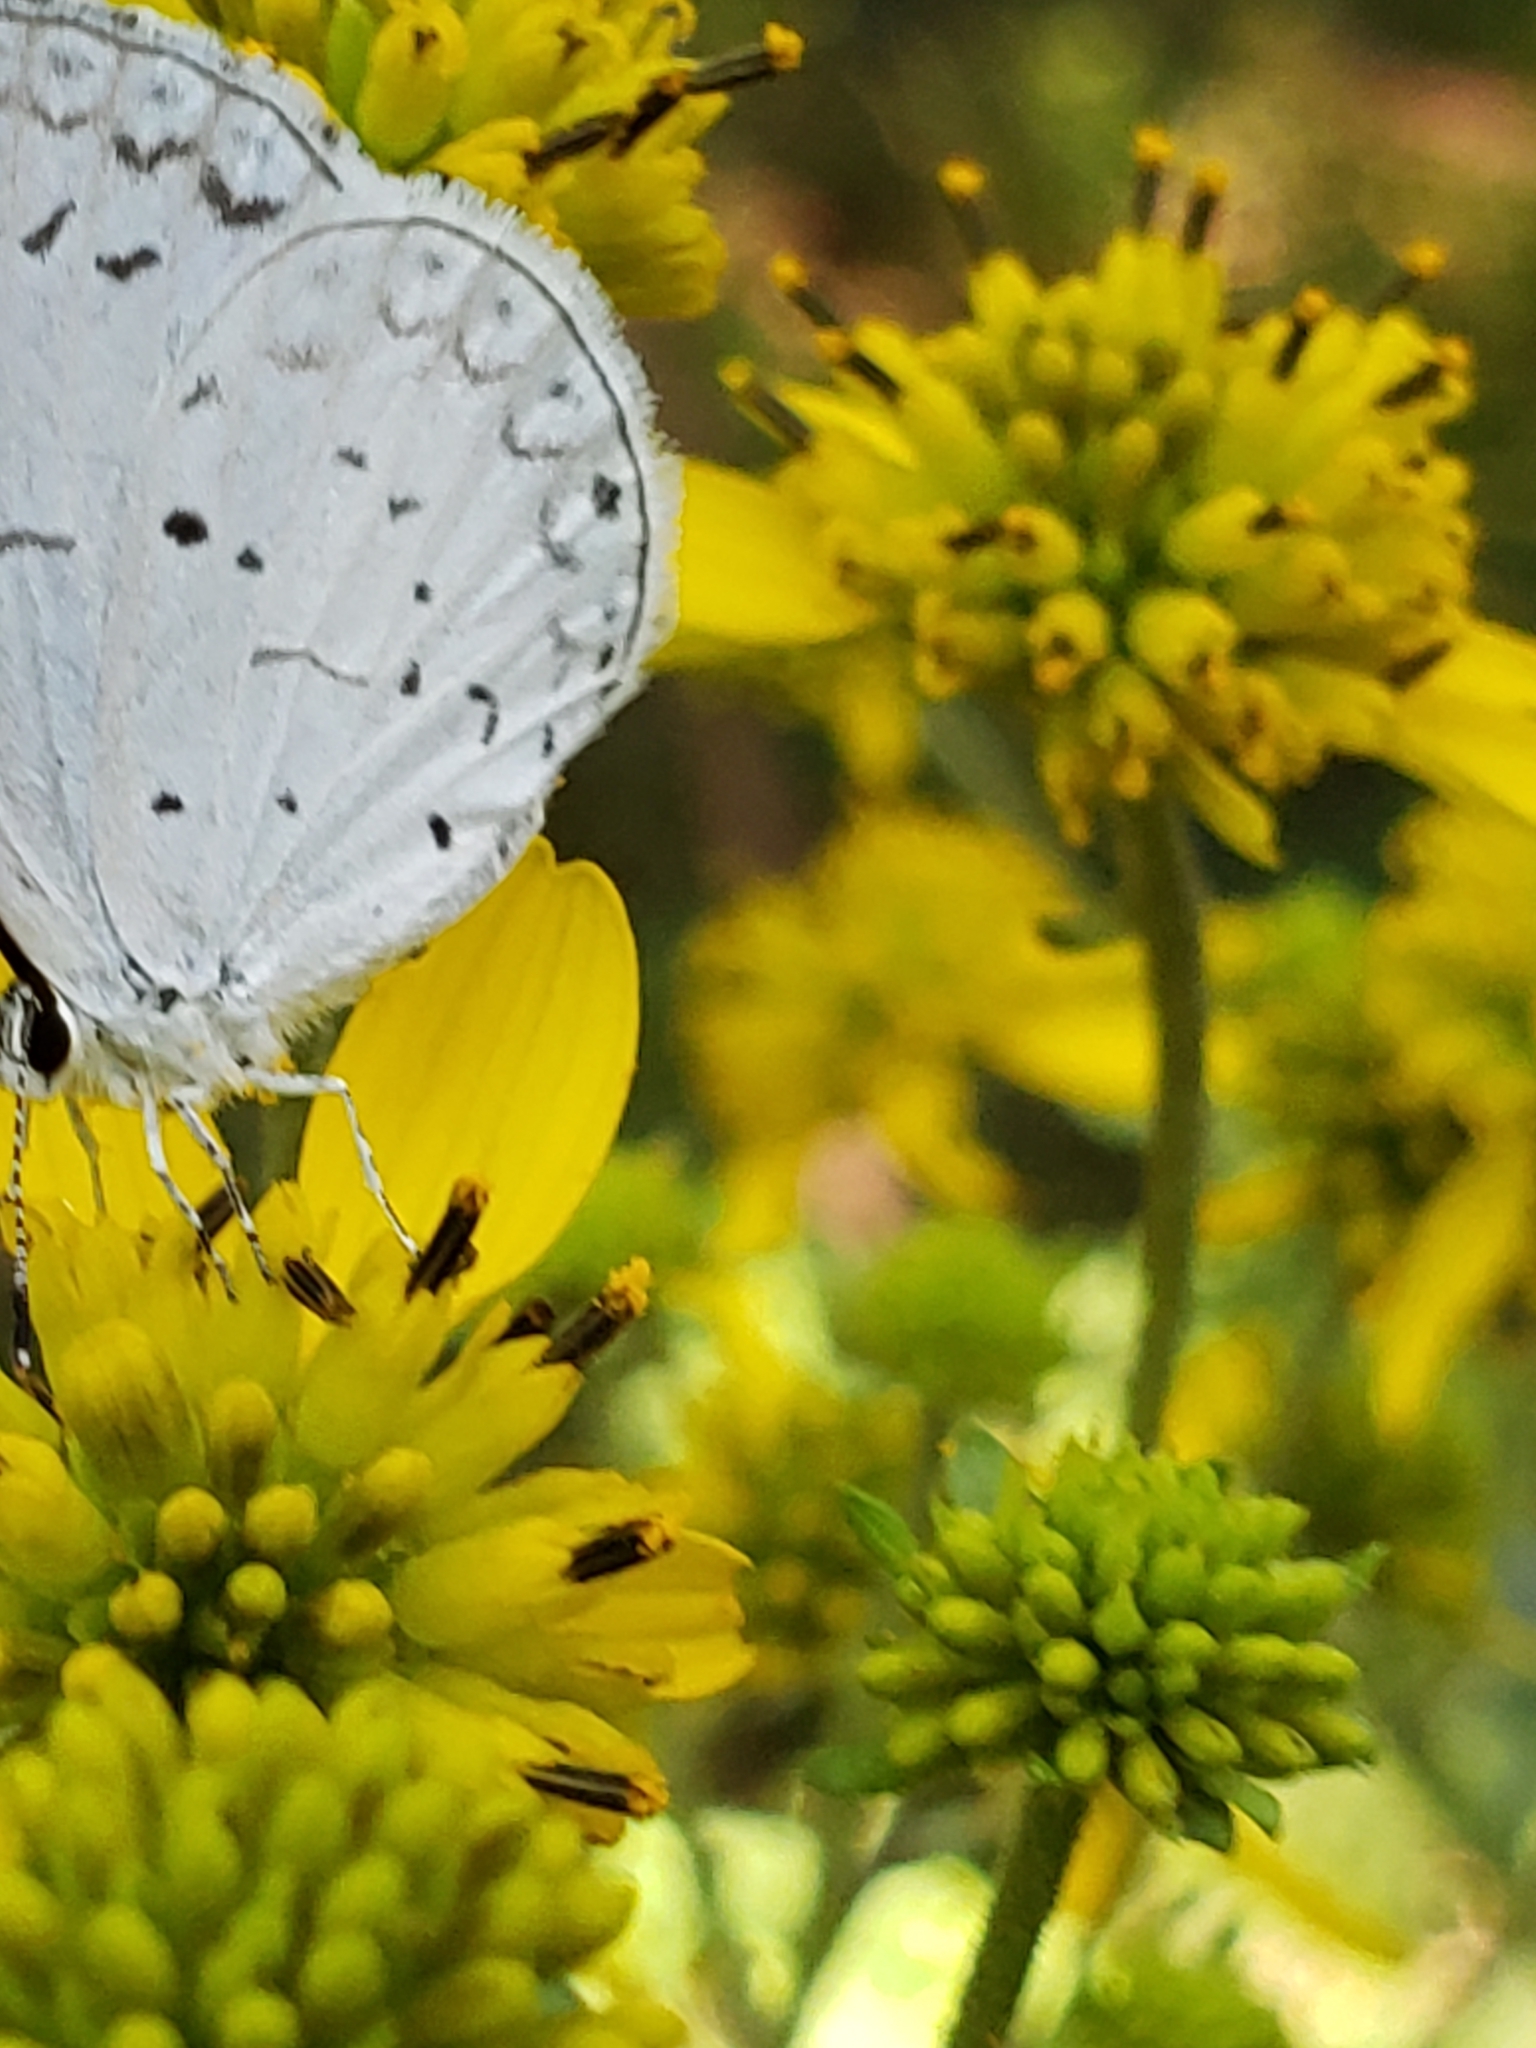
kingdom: Animalia
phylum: Arthropoda
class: Insecta
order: Lepidoptera
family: Lycaenidae
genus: Cyaniris
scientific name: Cyaniris neglecta
